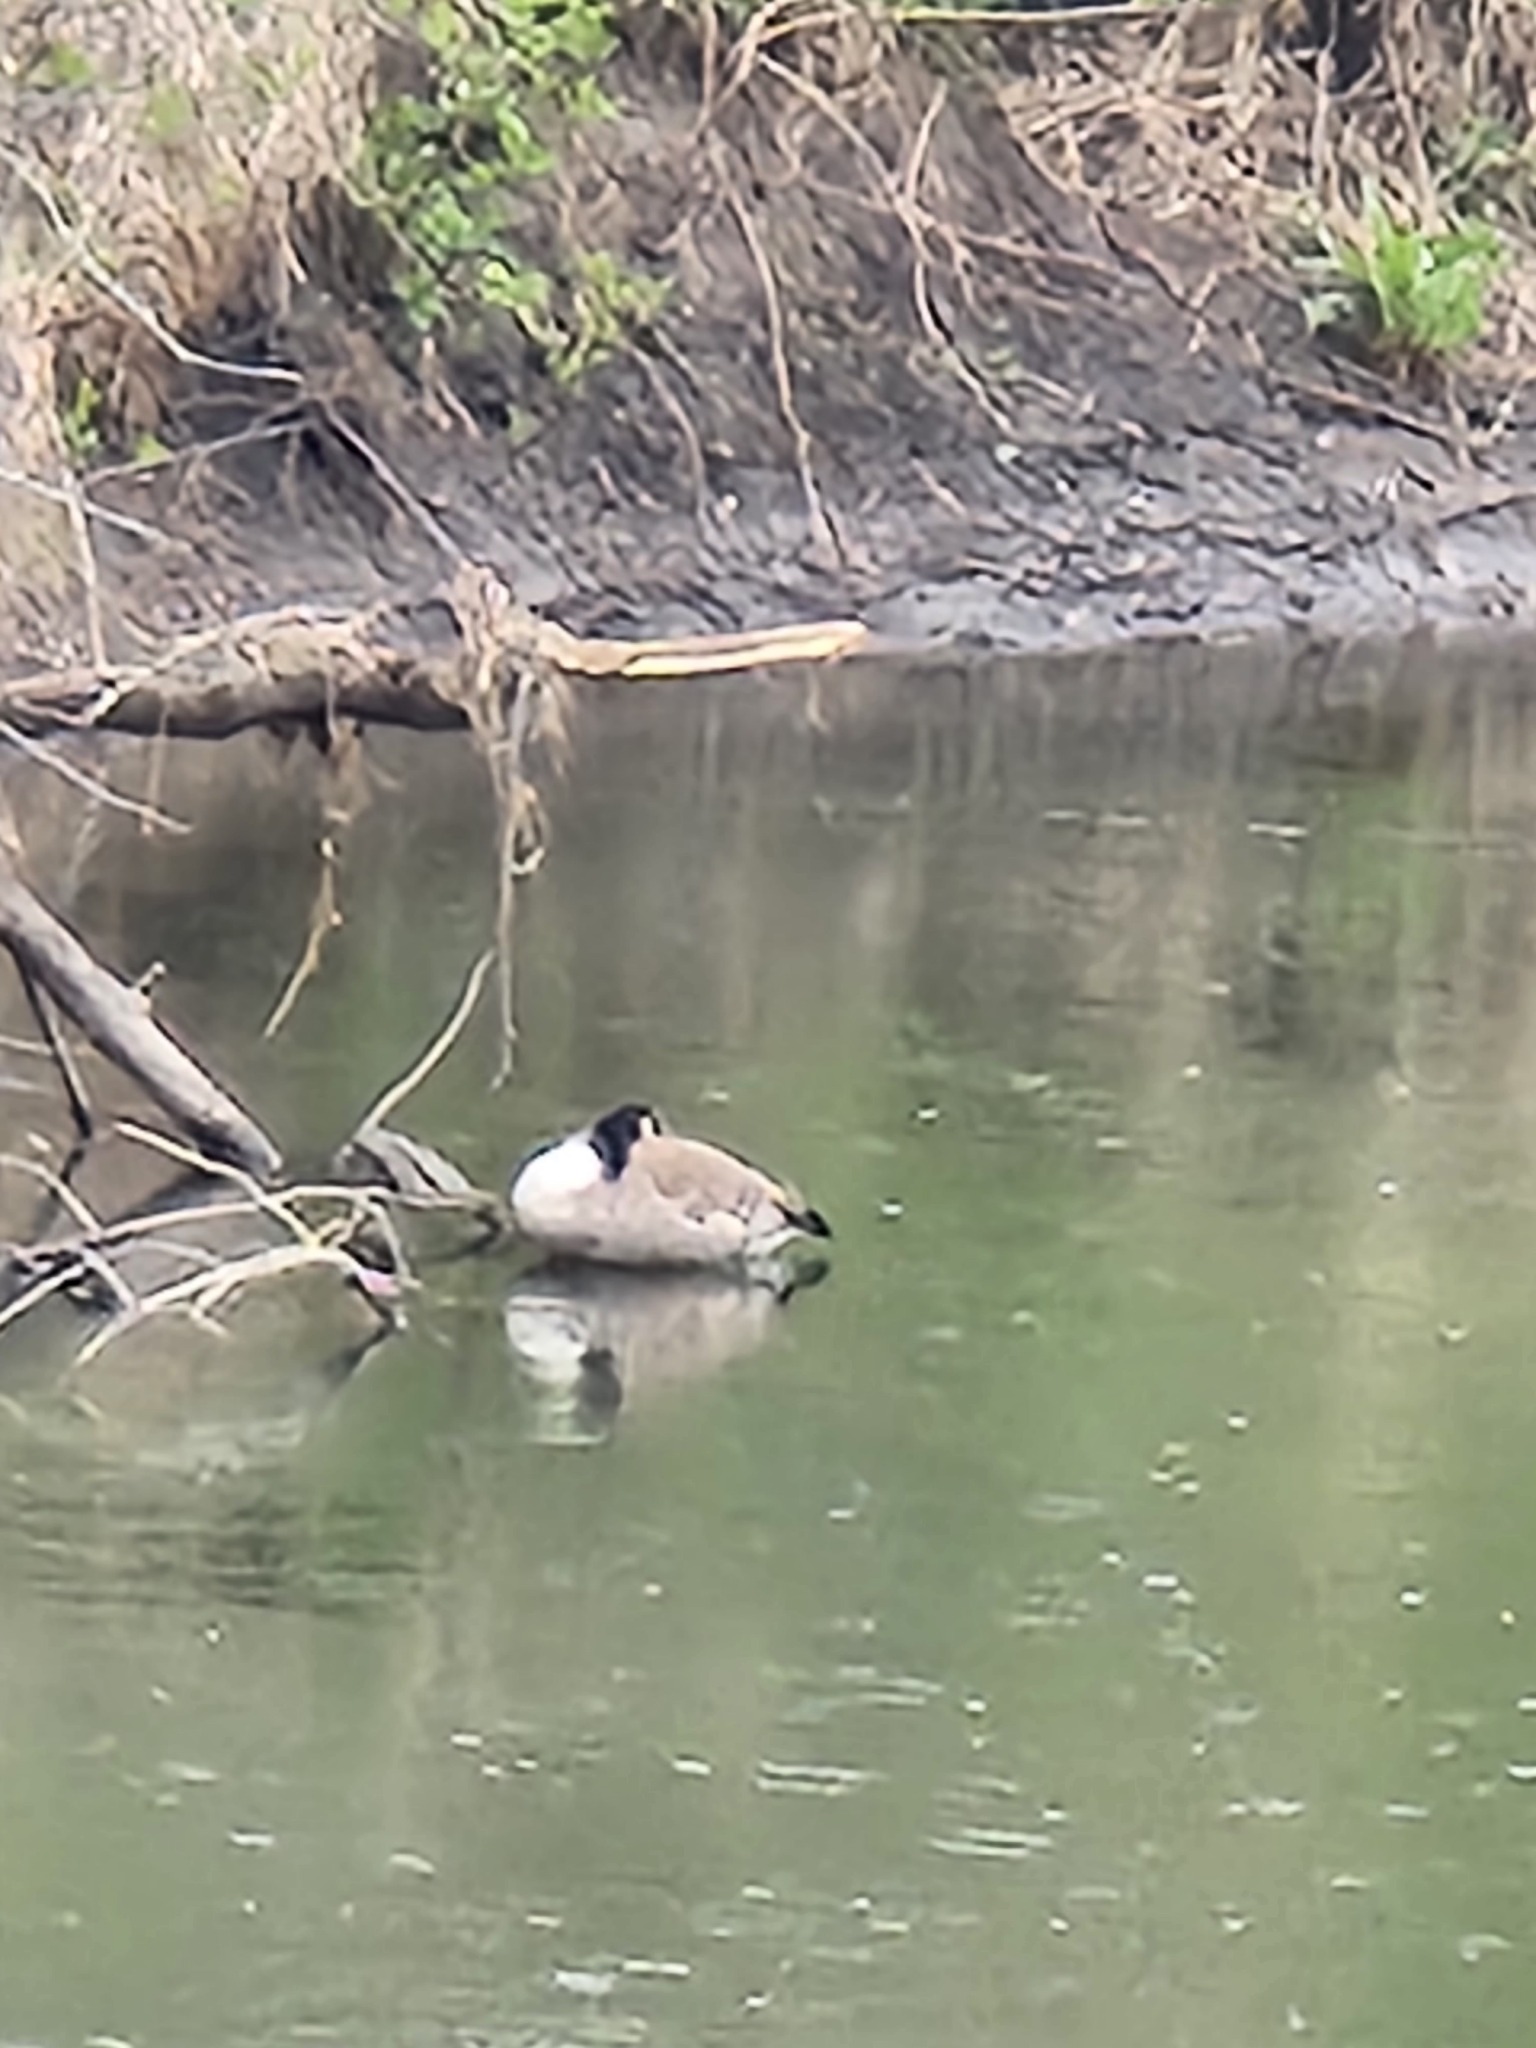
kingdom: Animalia
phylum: Chordata
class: Aves
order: Anseriformes
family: Anatidae
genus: Branta
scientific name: Branta canadensis
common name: Canada goose
